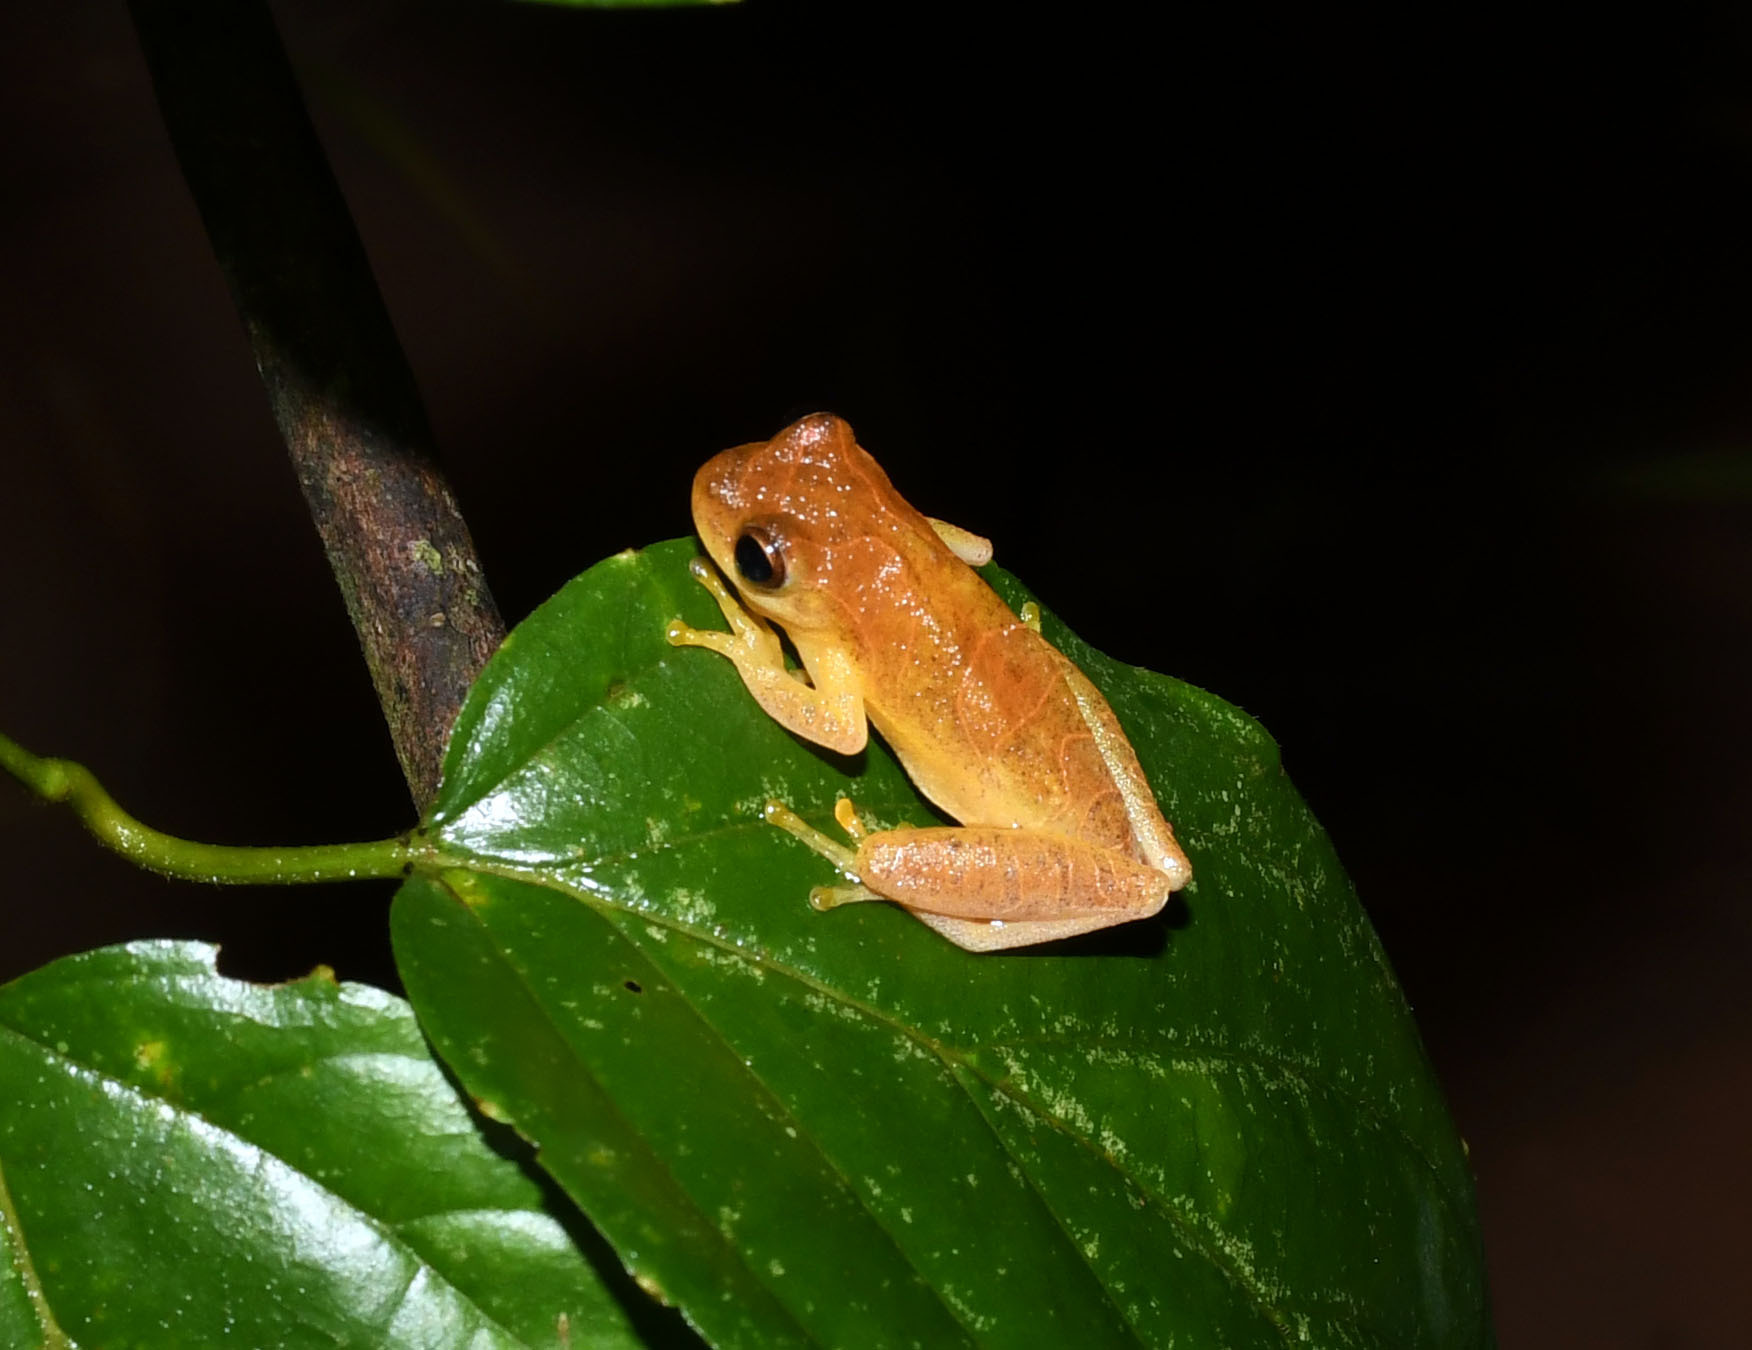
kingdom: Animalia
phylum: Chordata
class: Amphibia
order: Anura
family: Hylidae
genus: Dendropsophus
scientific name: Dendropsophus minutus
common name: Lesser treefrog
